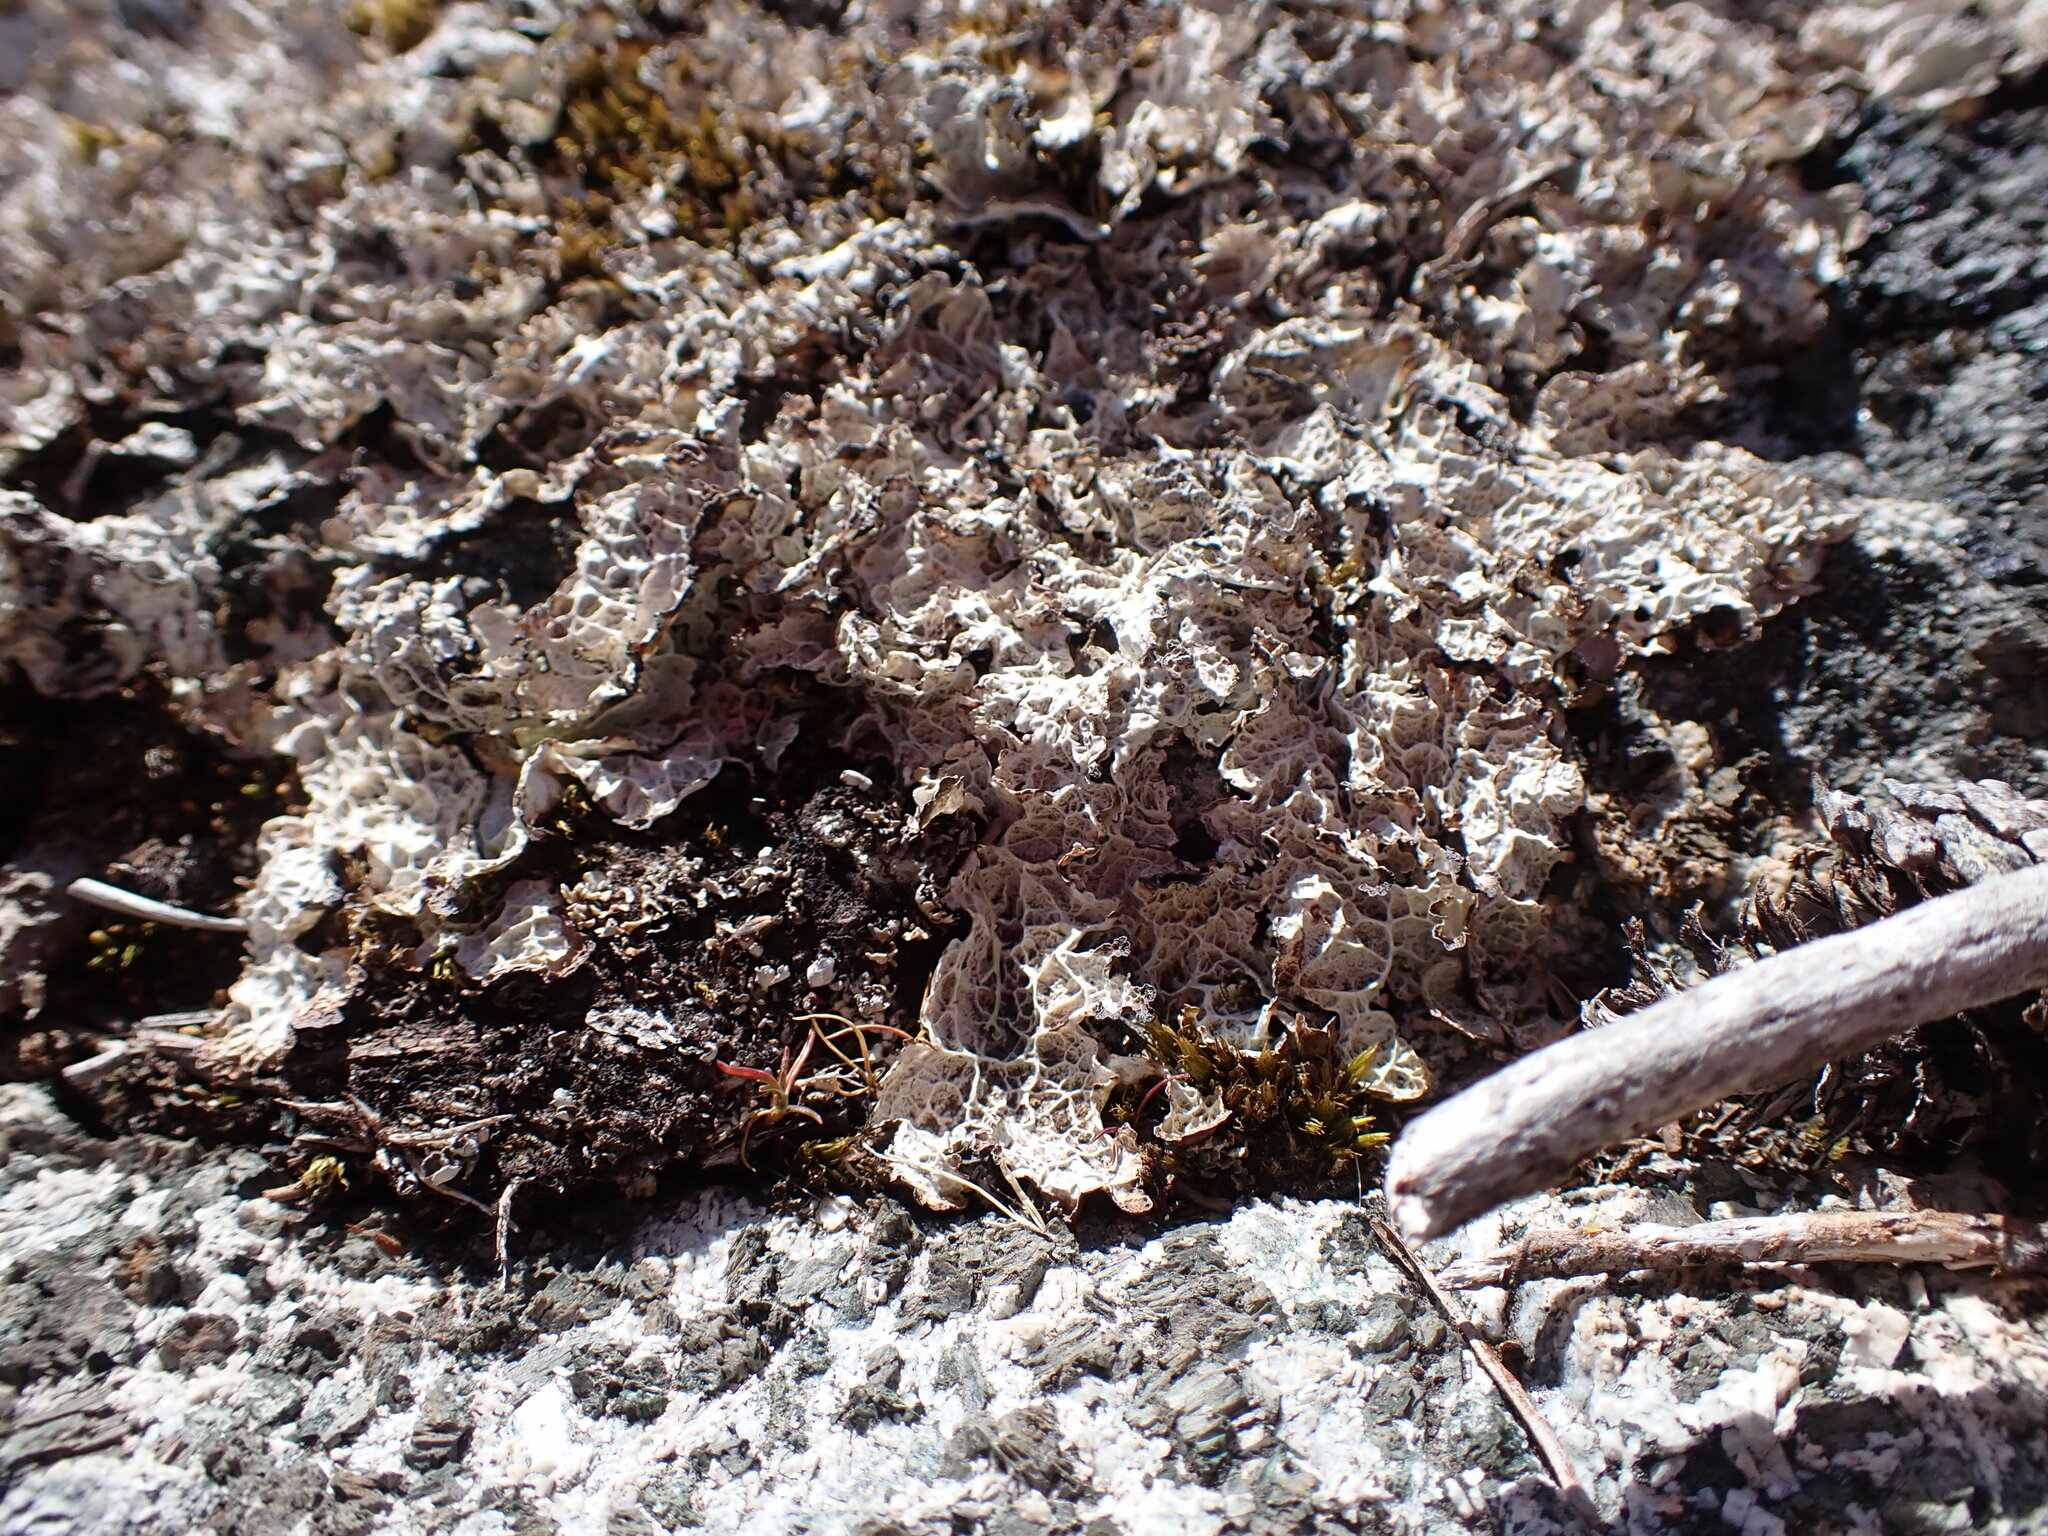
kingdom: Fungi
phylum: Ascomycota
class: Lecanoromycetes
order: Lecanorales
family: Parmeliaceae
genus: Platismatia
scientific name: Platismatia norvegica
